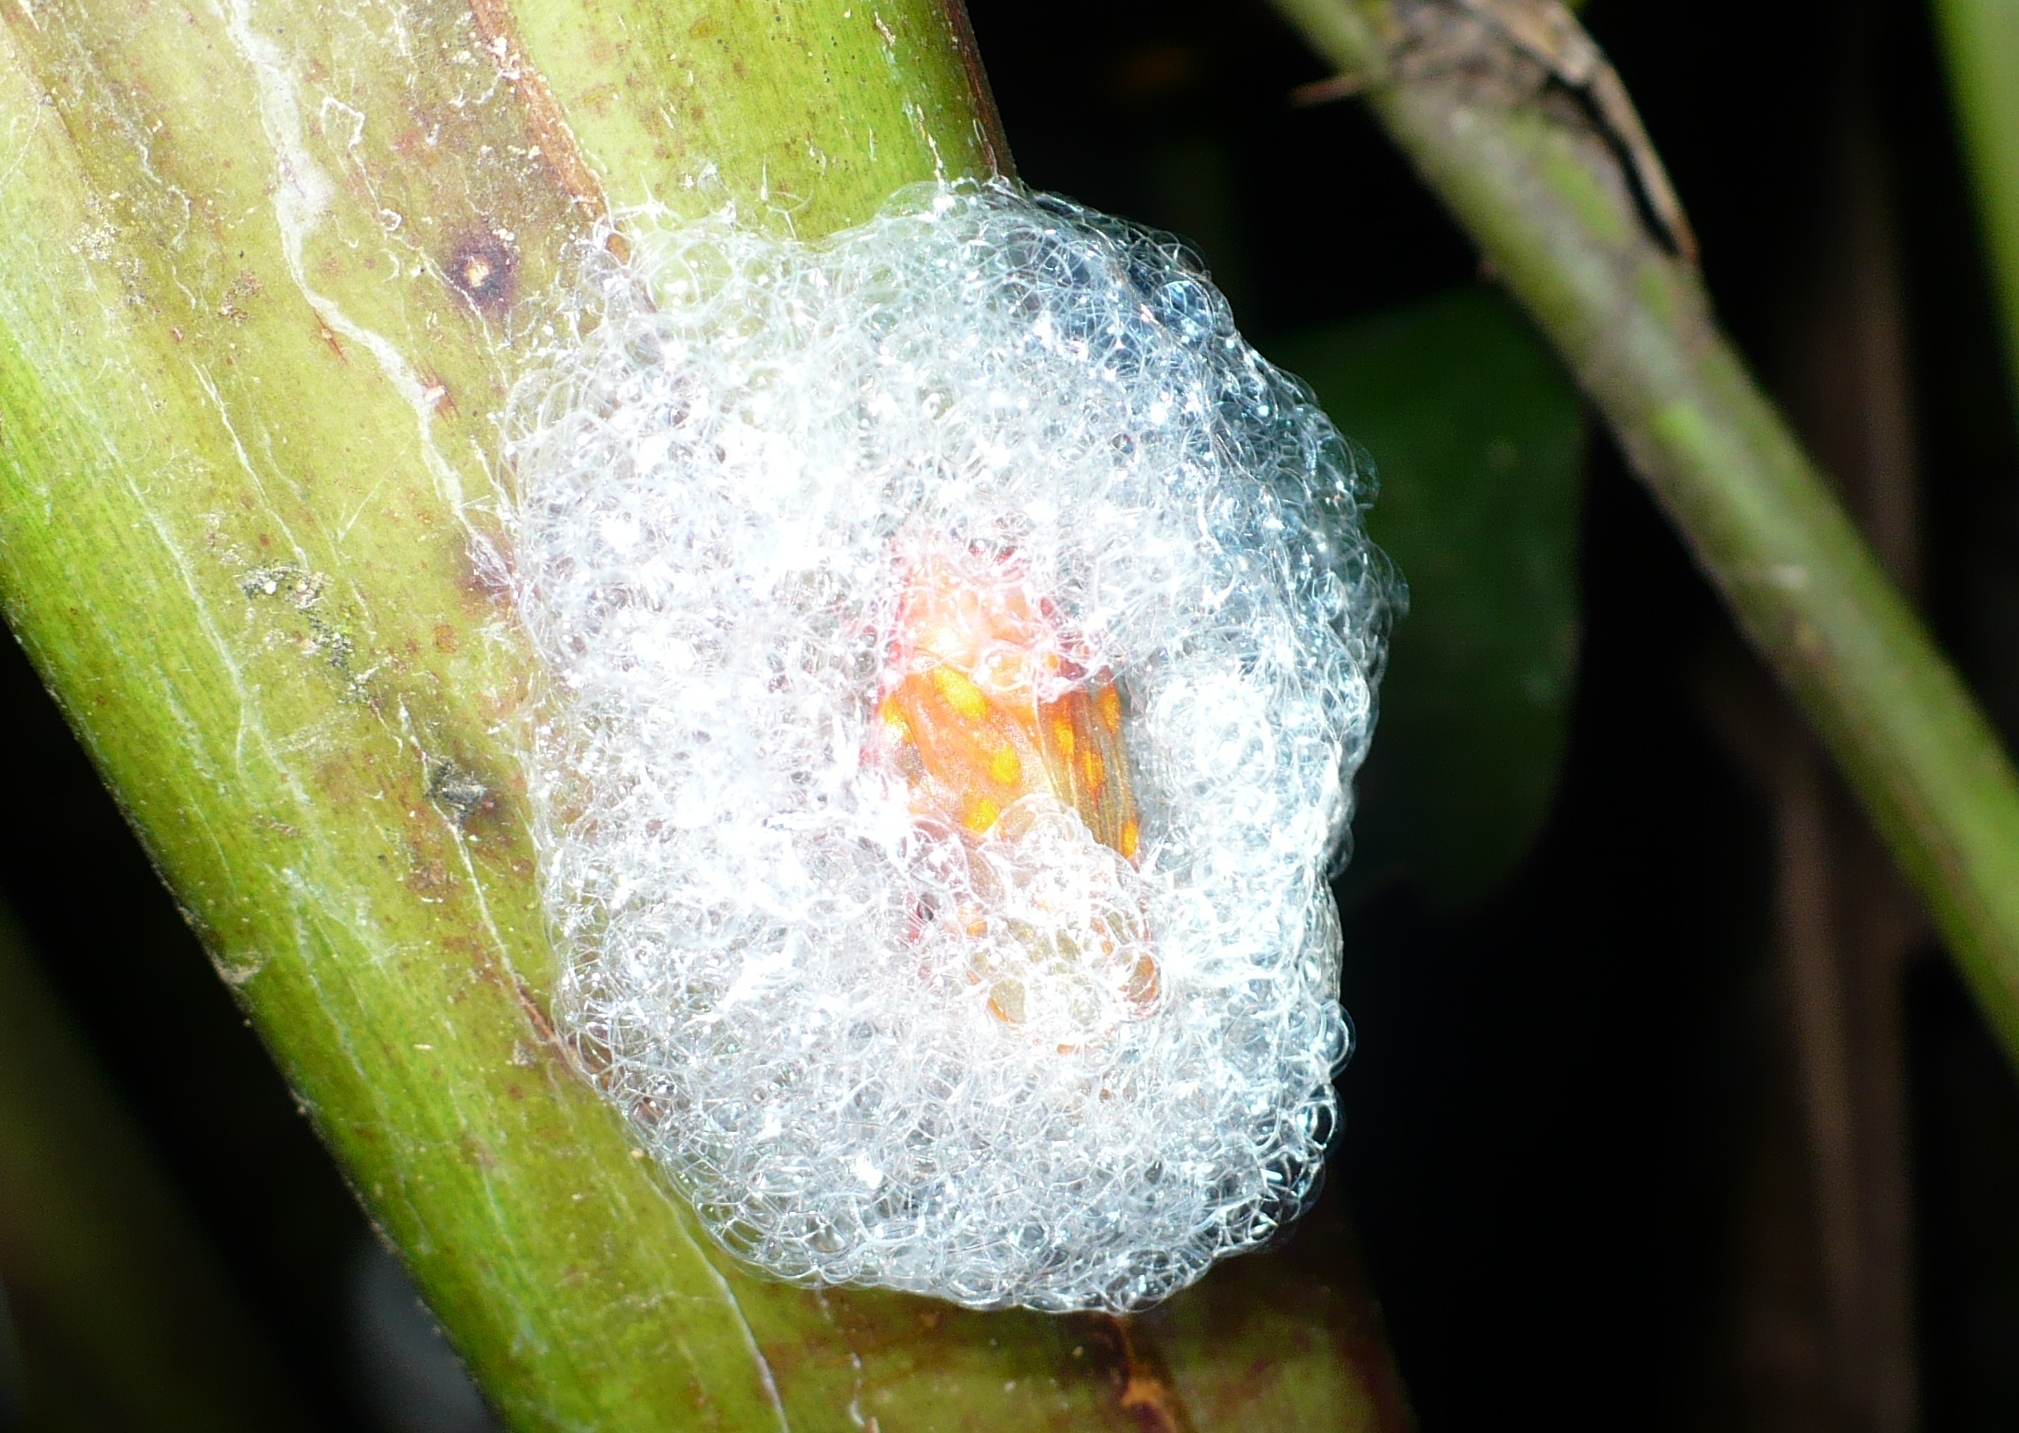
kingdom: Animalia
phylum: Arthropoda
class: Insecta
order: Hemiptera
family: Cercopidae
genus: Mahanarva
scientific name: Mahanarva costaricensis
